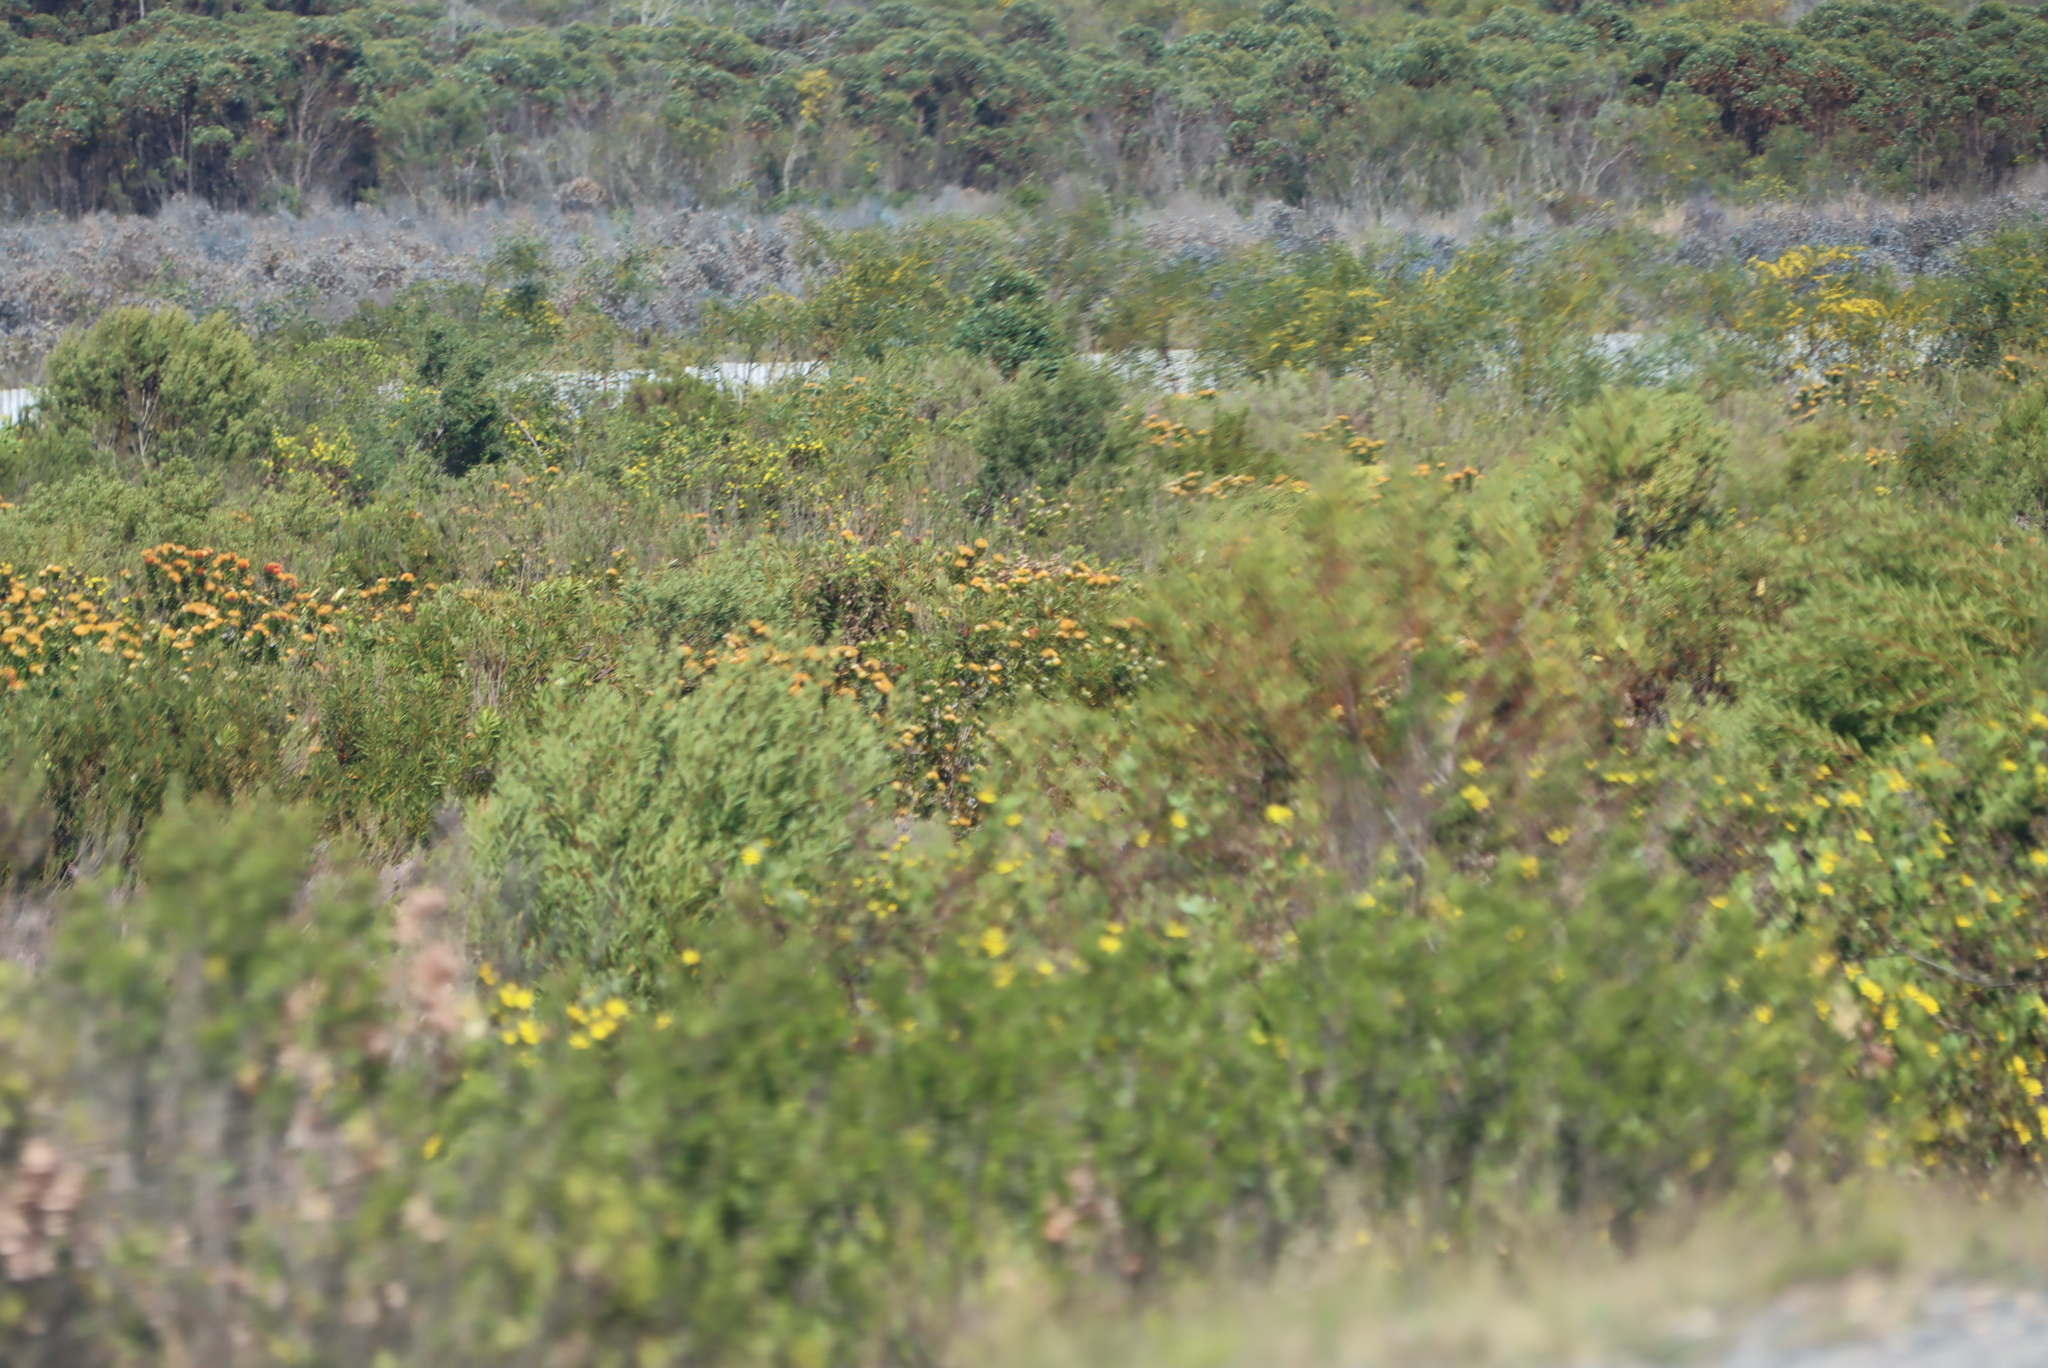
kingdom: Plantae
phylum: Tracheophyta
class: Magnoliopsida
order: Proteales
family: Proteaceae
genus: Leucospermum
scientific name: Leucospermum praecox
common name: Mossel bay pincushion
